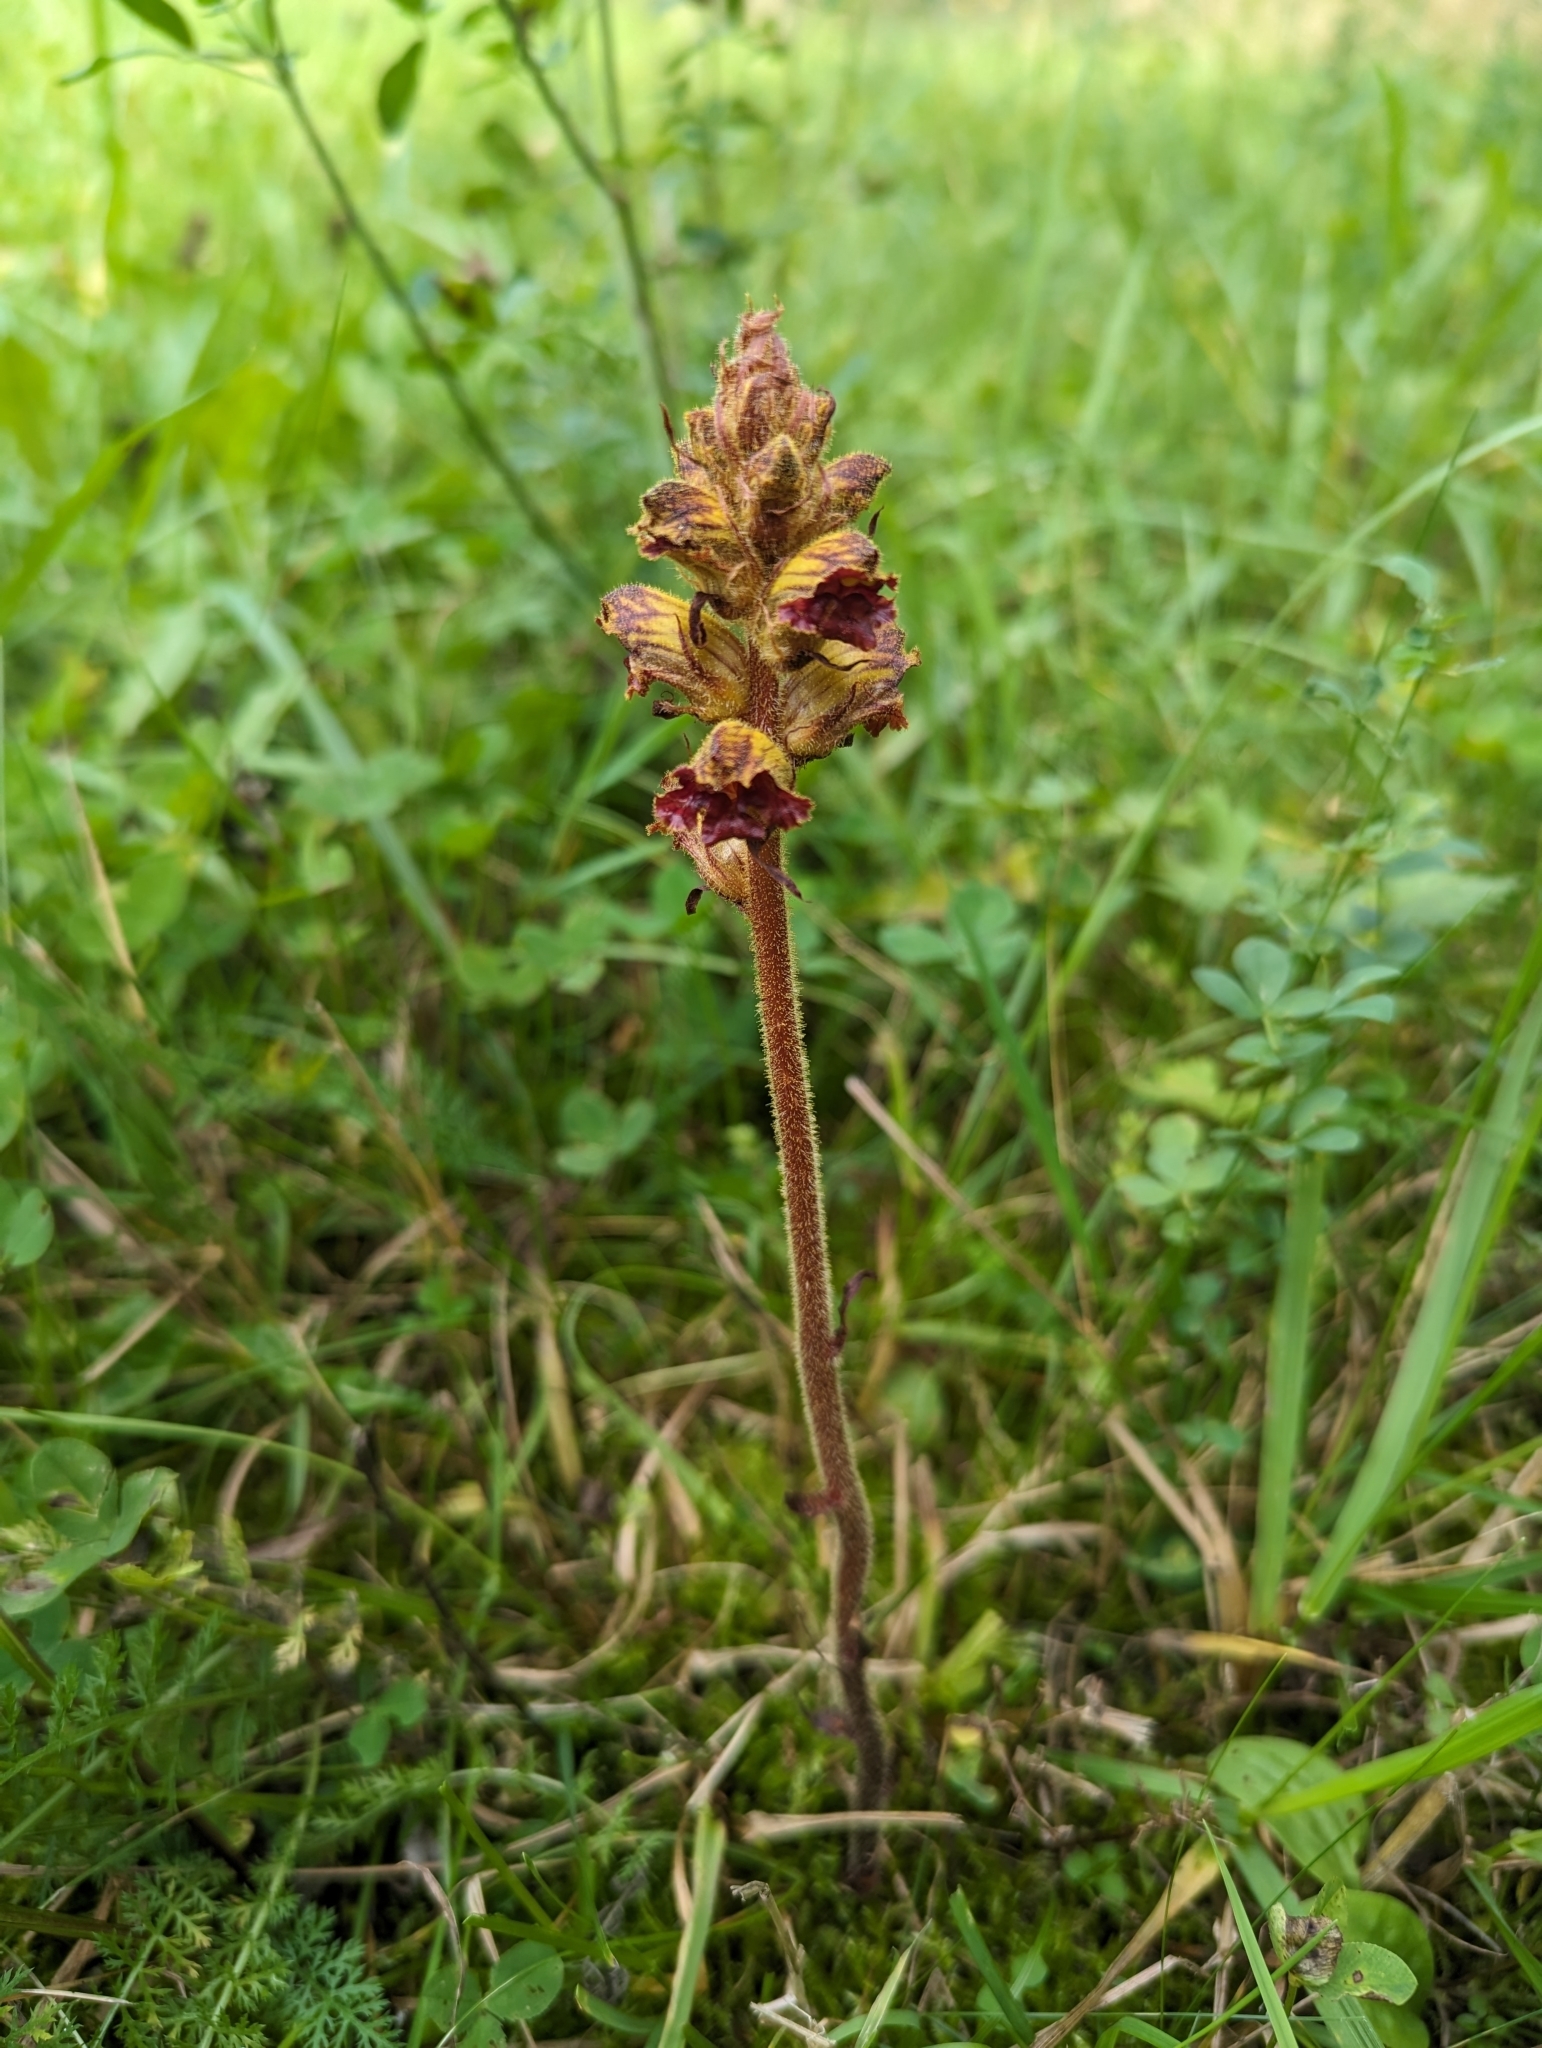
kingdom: Plantae
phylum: Tracheophyta
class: Magnoliopsida
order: Lamiales
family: Orobanchaceae
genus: Orobanche
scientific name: Orobanche gracilis
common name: Slender broomrape
